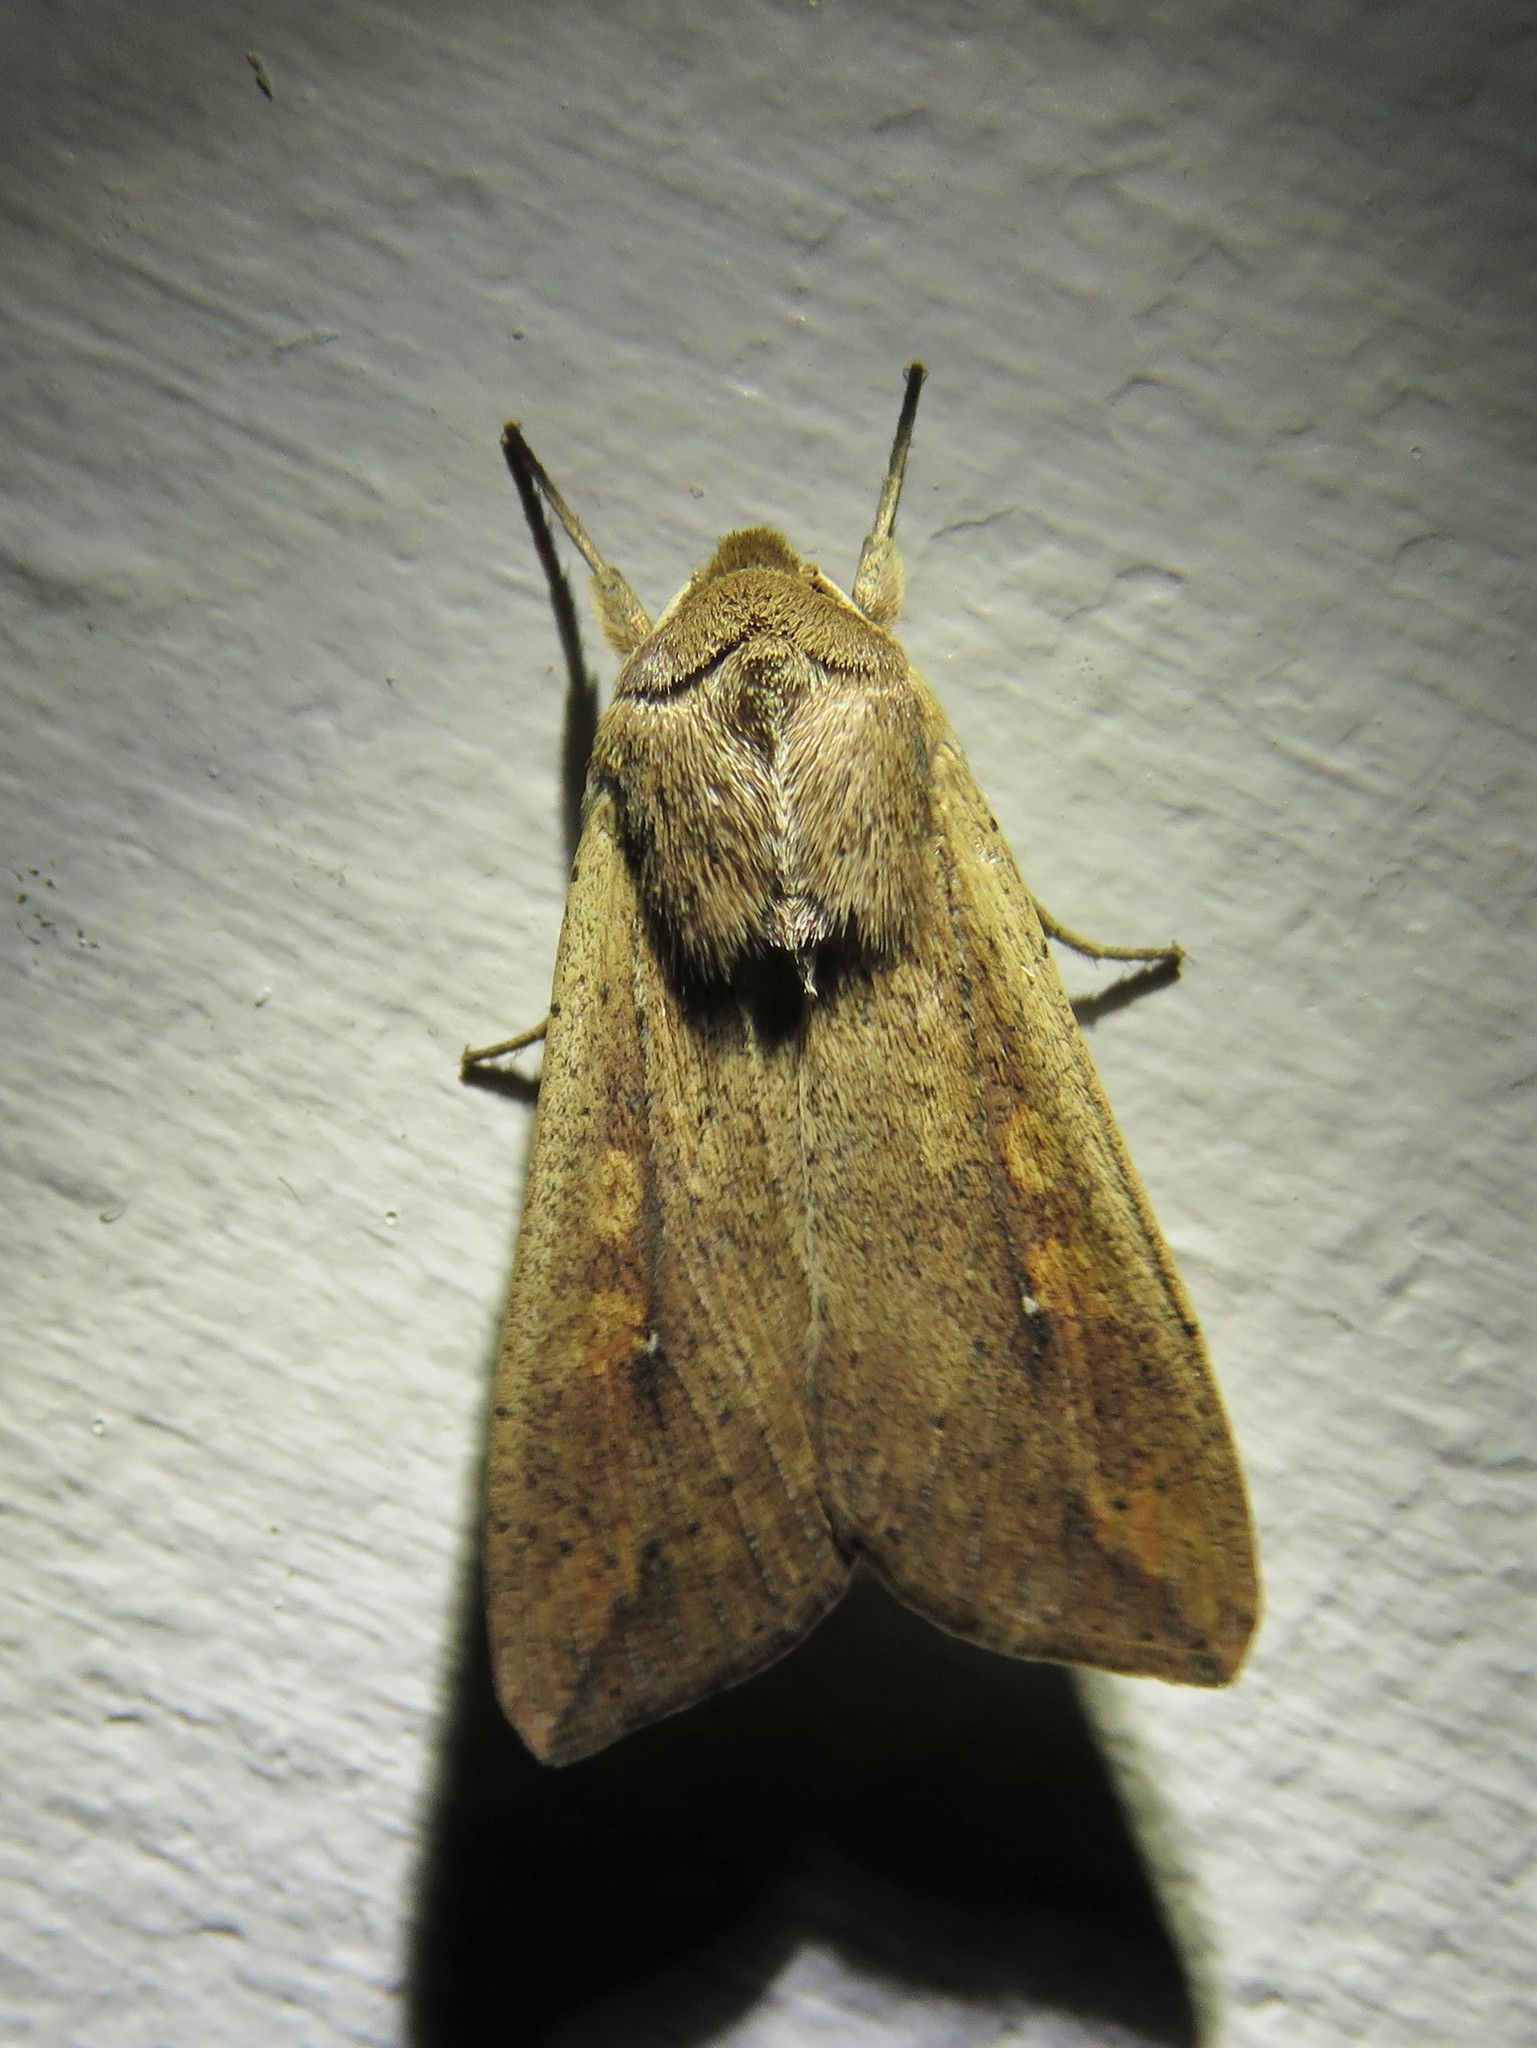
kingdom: Animalia
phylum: Arthropoda
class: Insecta
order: Lepidoptera
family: Noctuidae
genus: Mythimna
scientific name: Mythimna unipuncta
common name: White-speck
